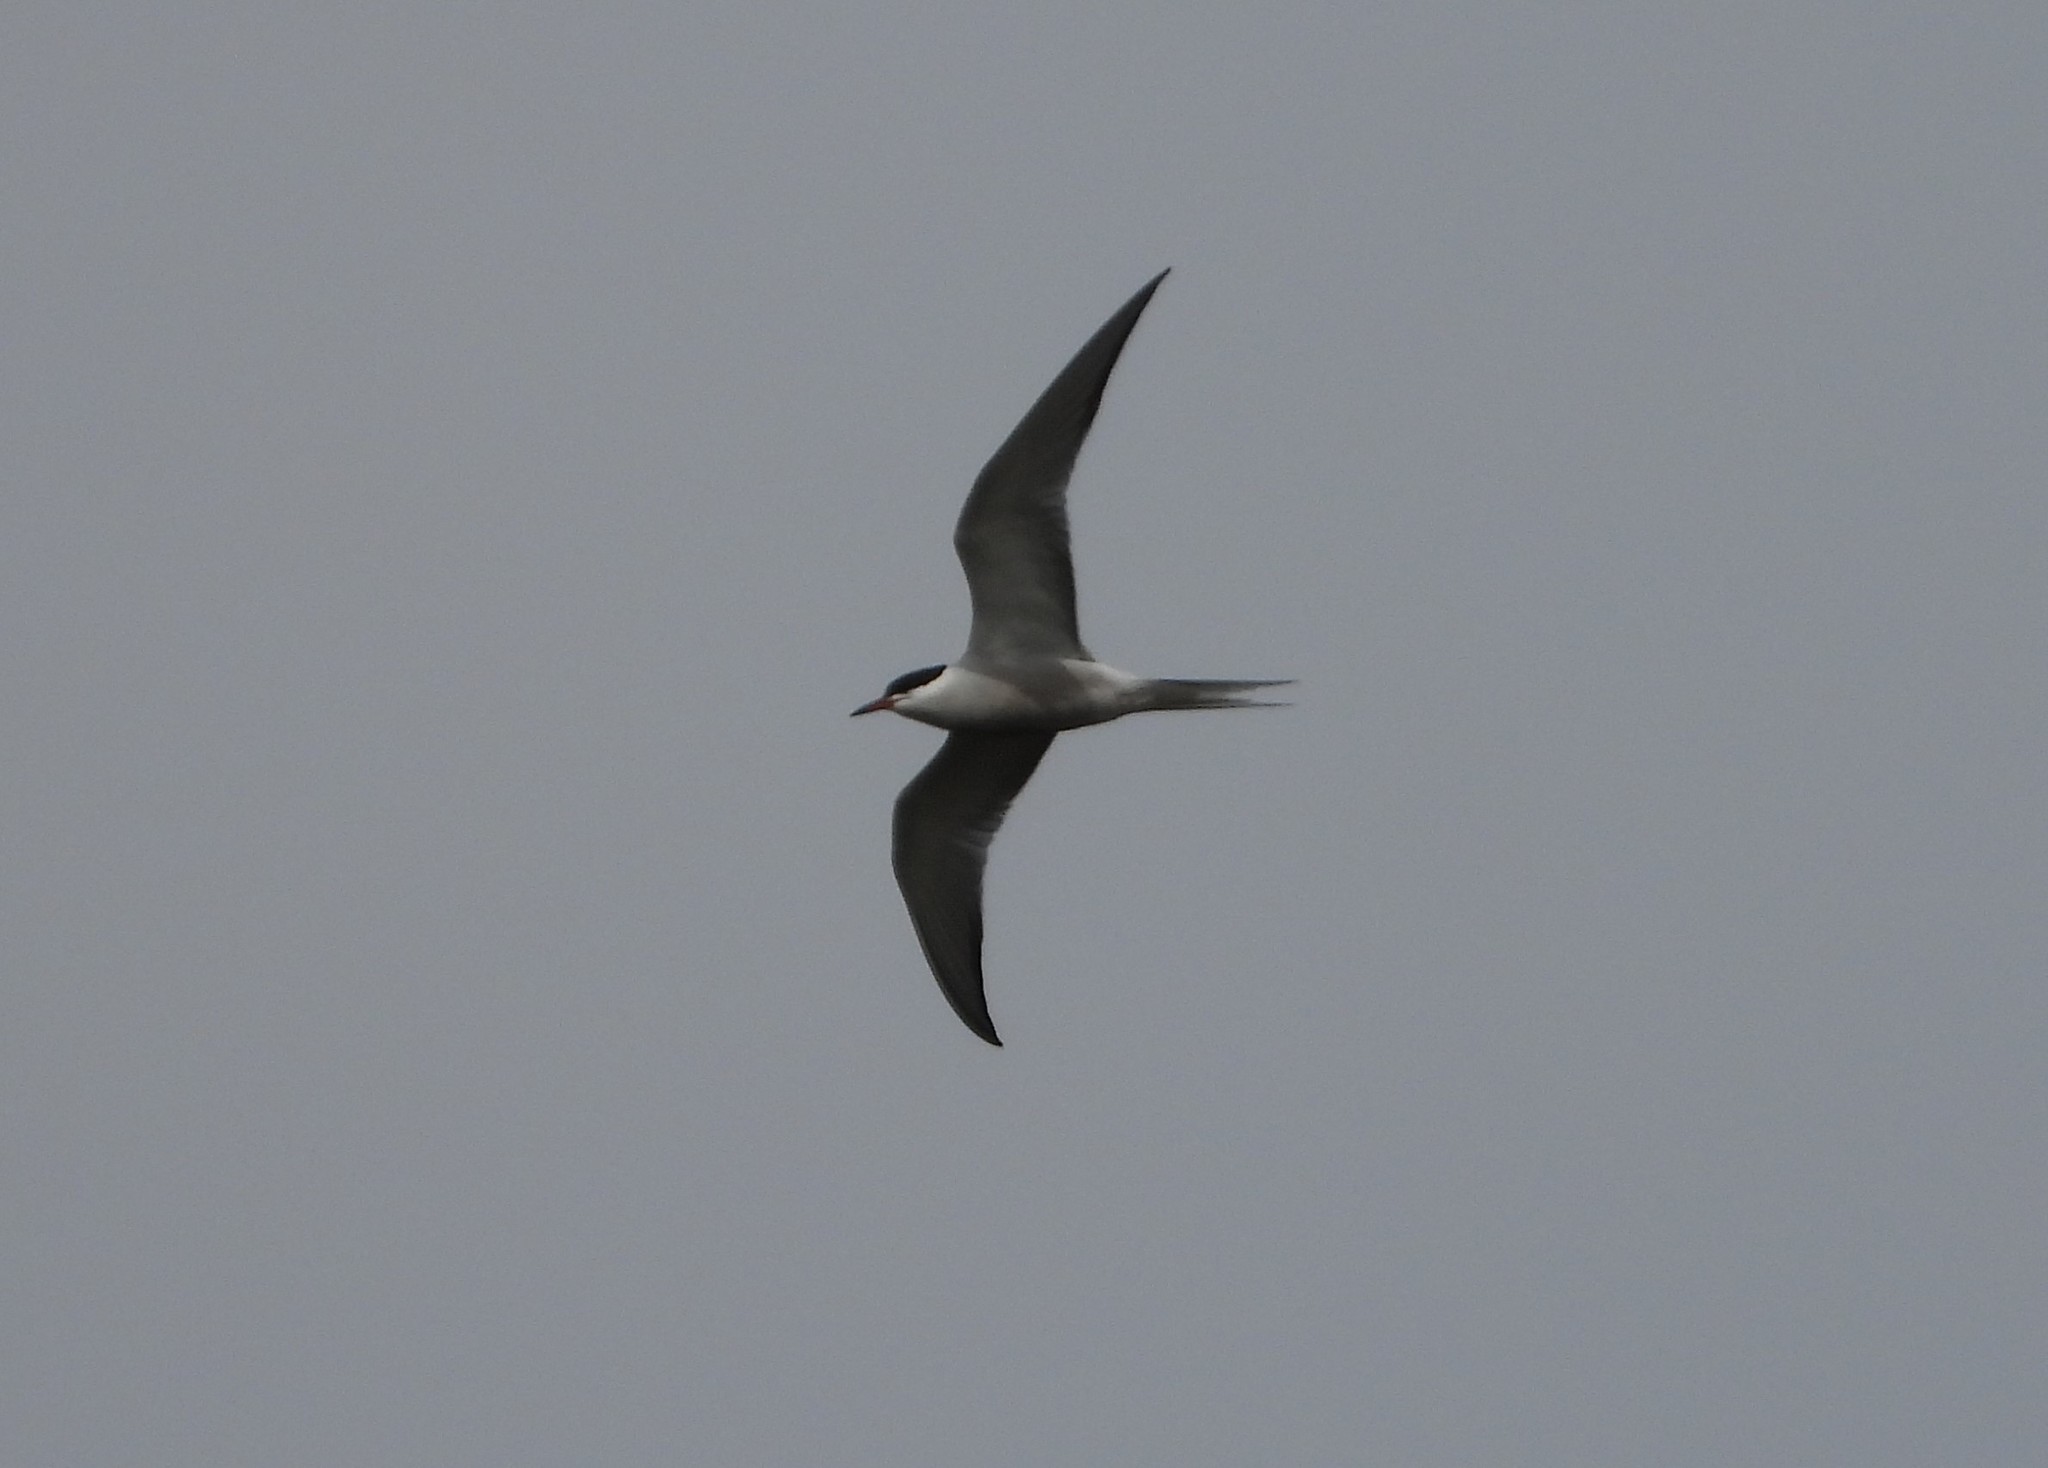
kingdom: Animalia
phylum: Chordata
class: Aves
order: Charadriiformes
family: Laridae
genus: Sterna
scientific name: Sterna hirundo
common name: Common tern
